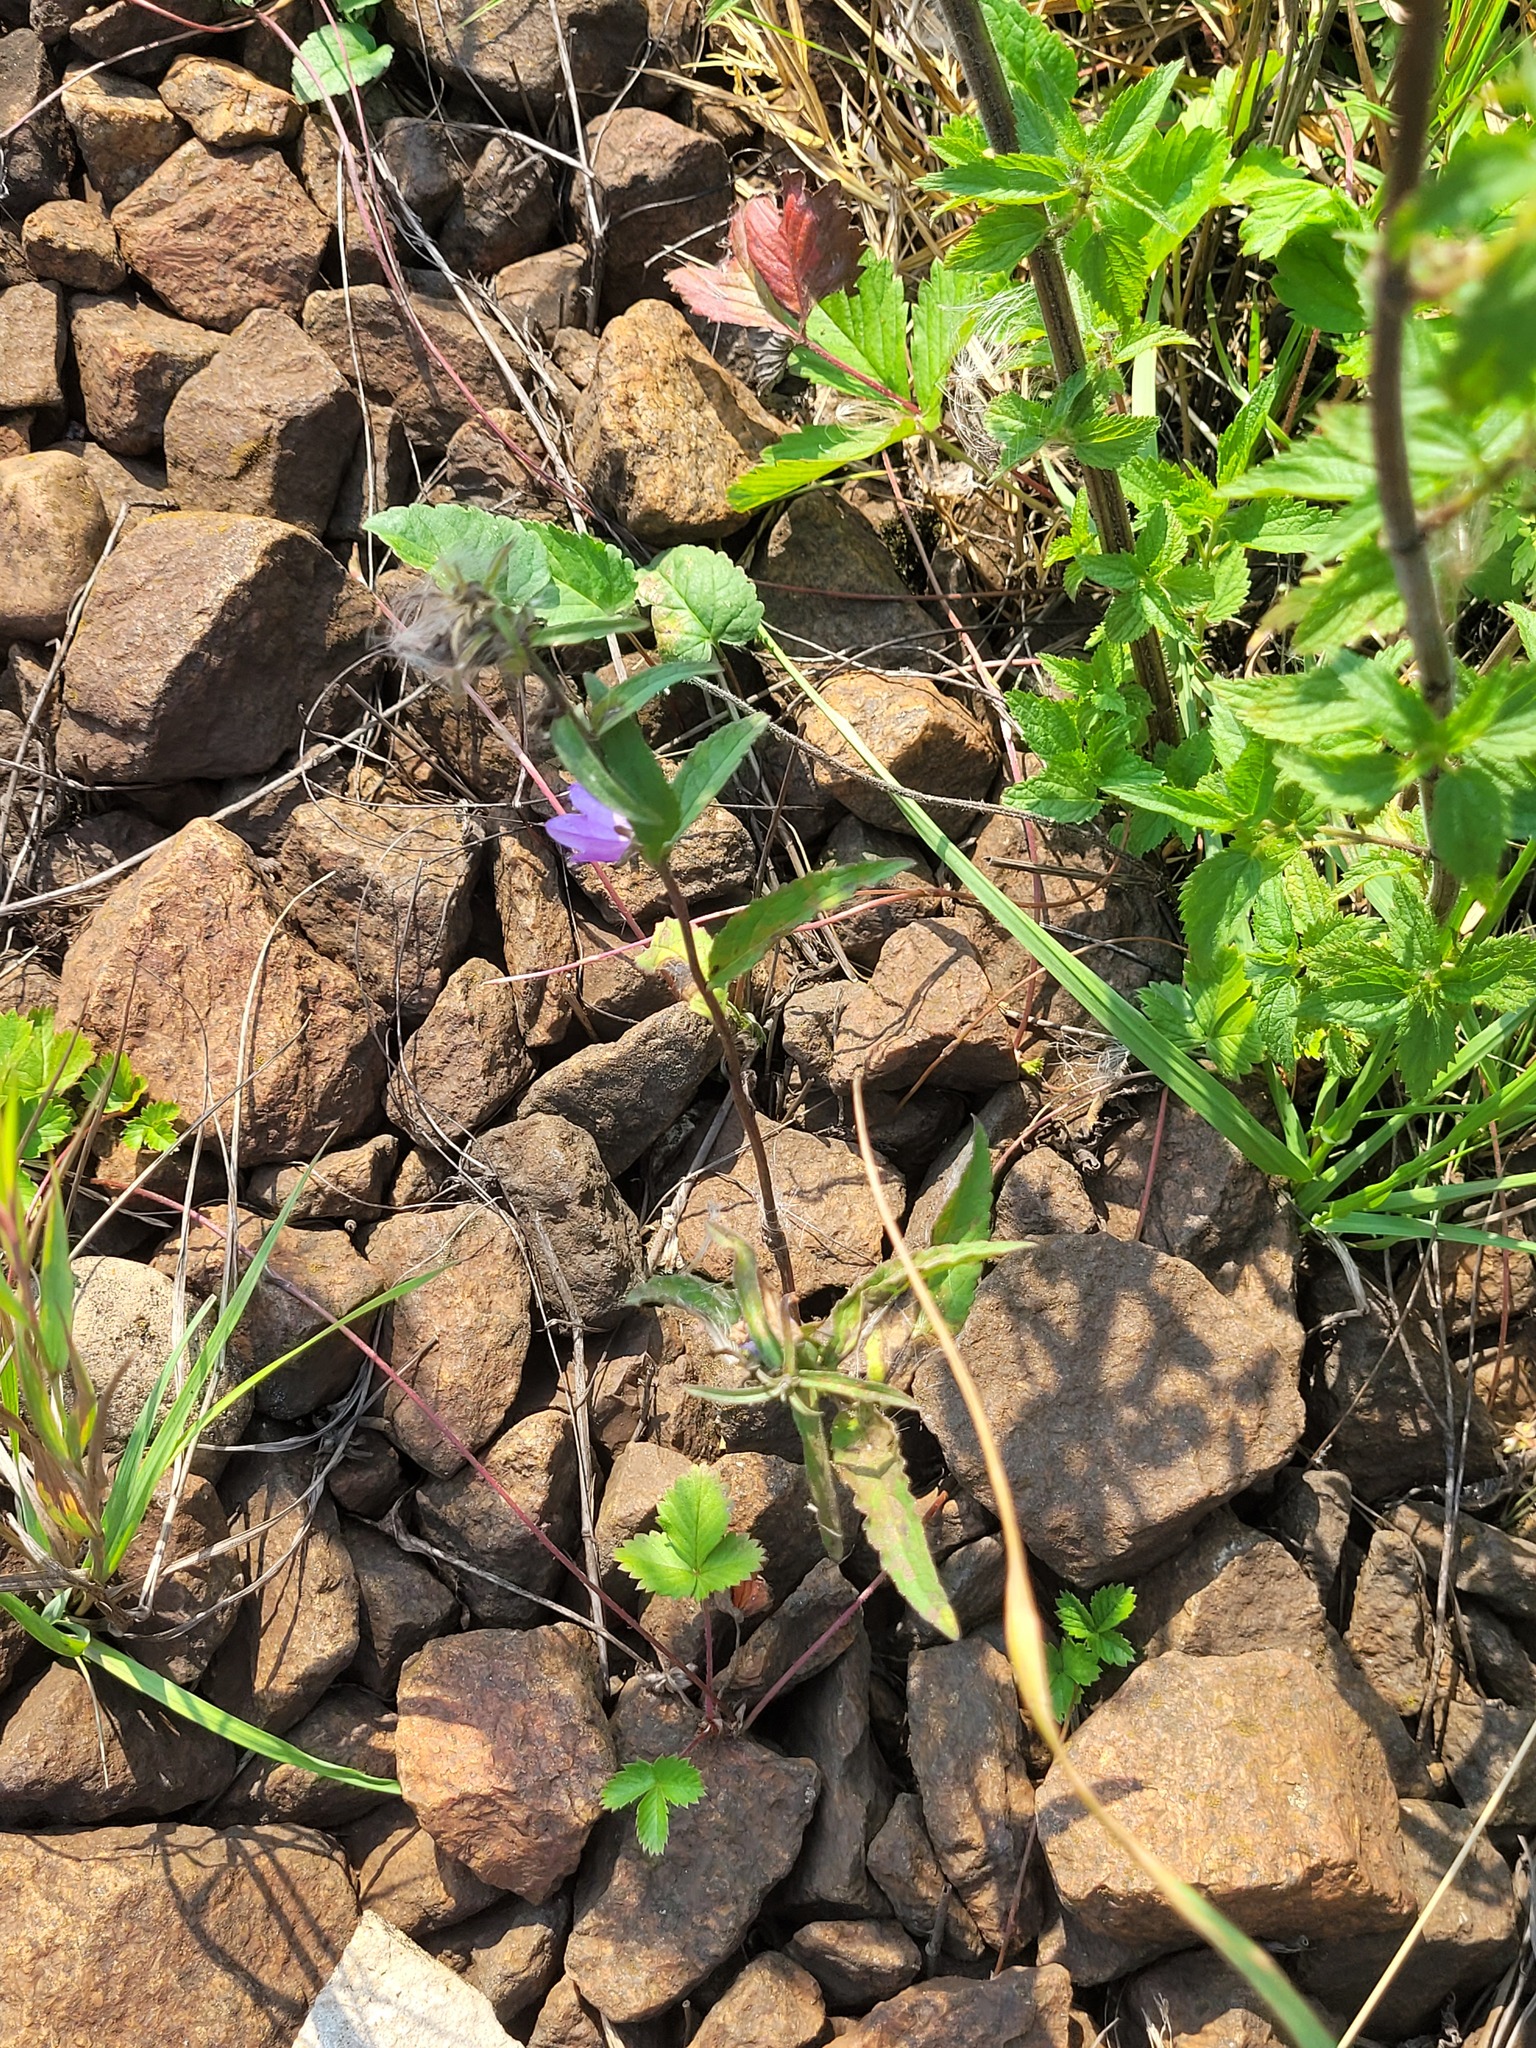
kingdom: Plantae
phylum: Tracheophyta
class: Magnoliopsida
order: Asterales
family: Campanulaceae
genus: Campanula
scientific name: Campanula rapunculoides
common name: Creeping bellflower
